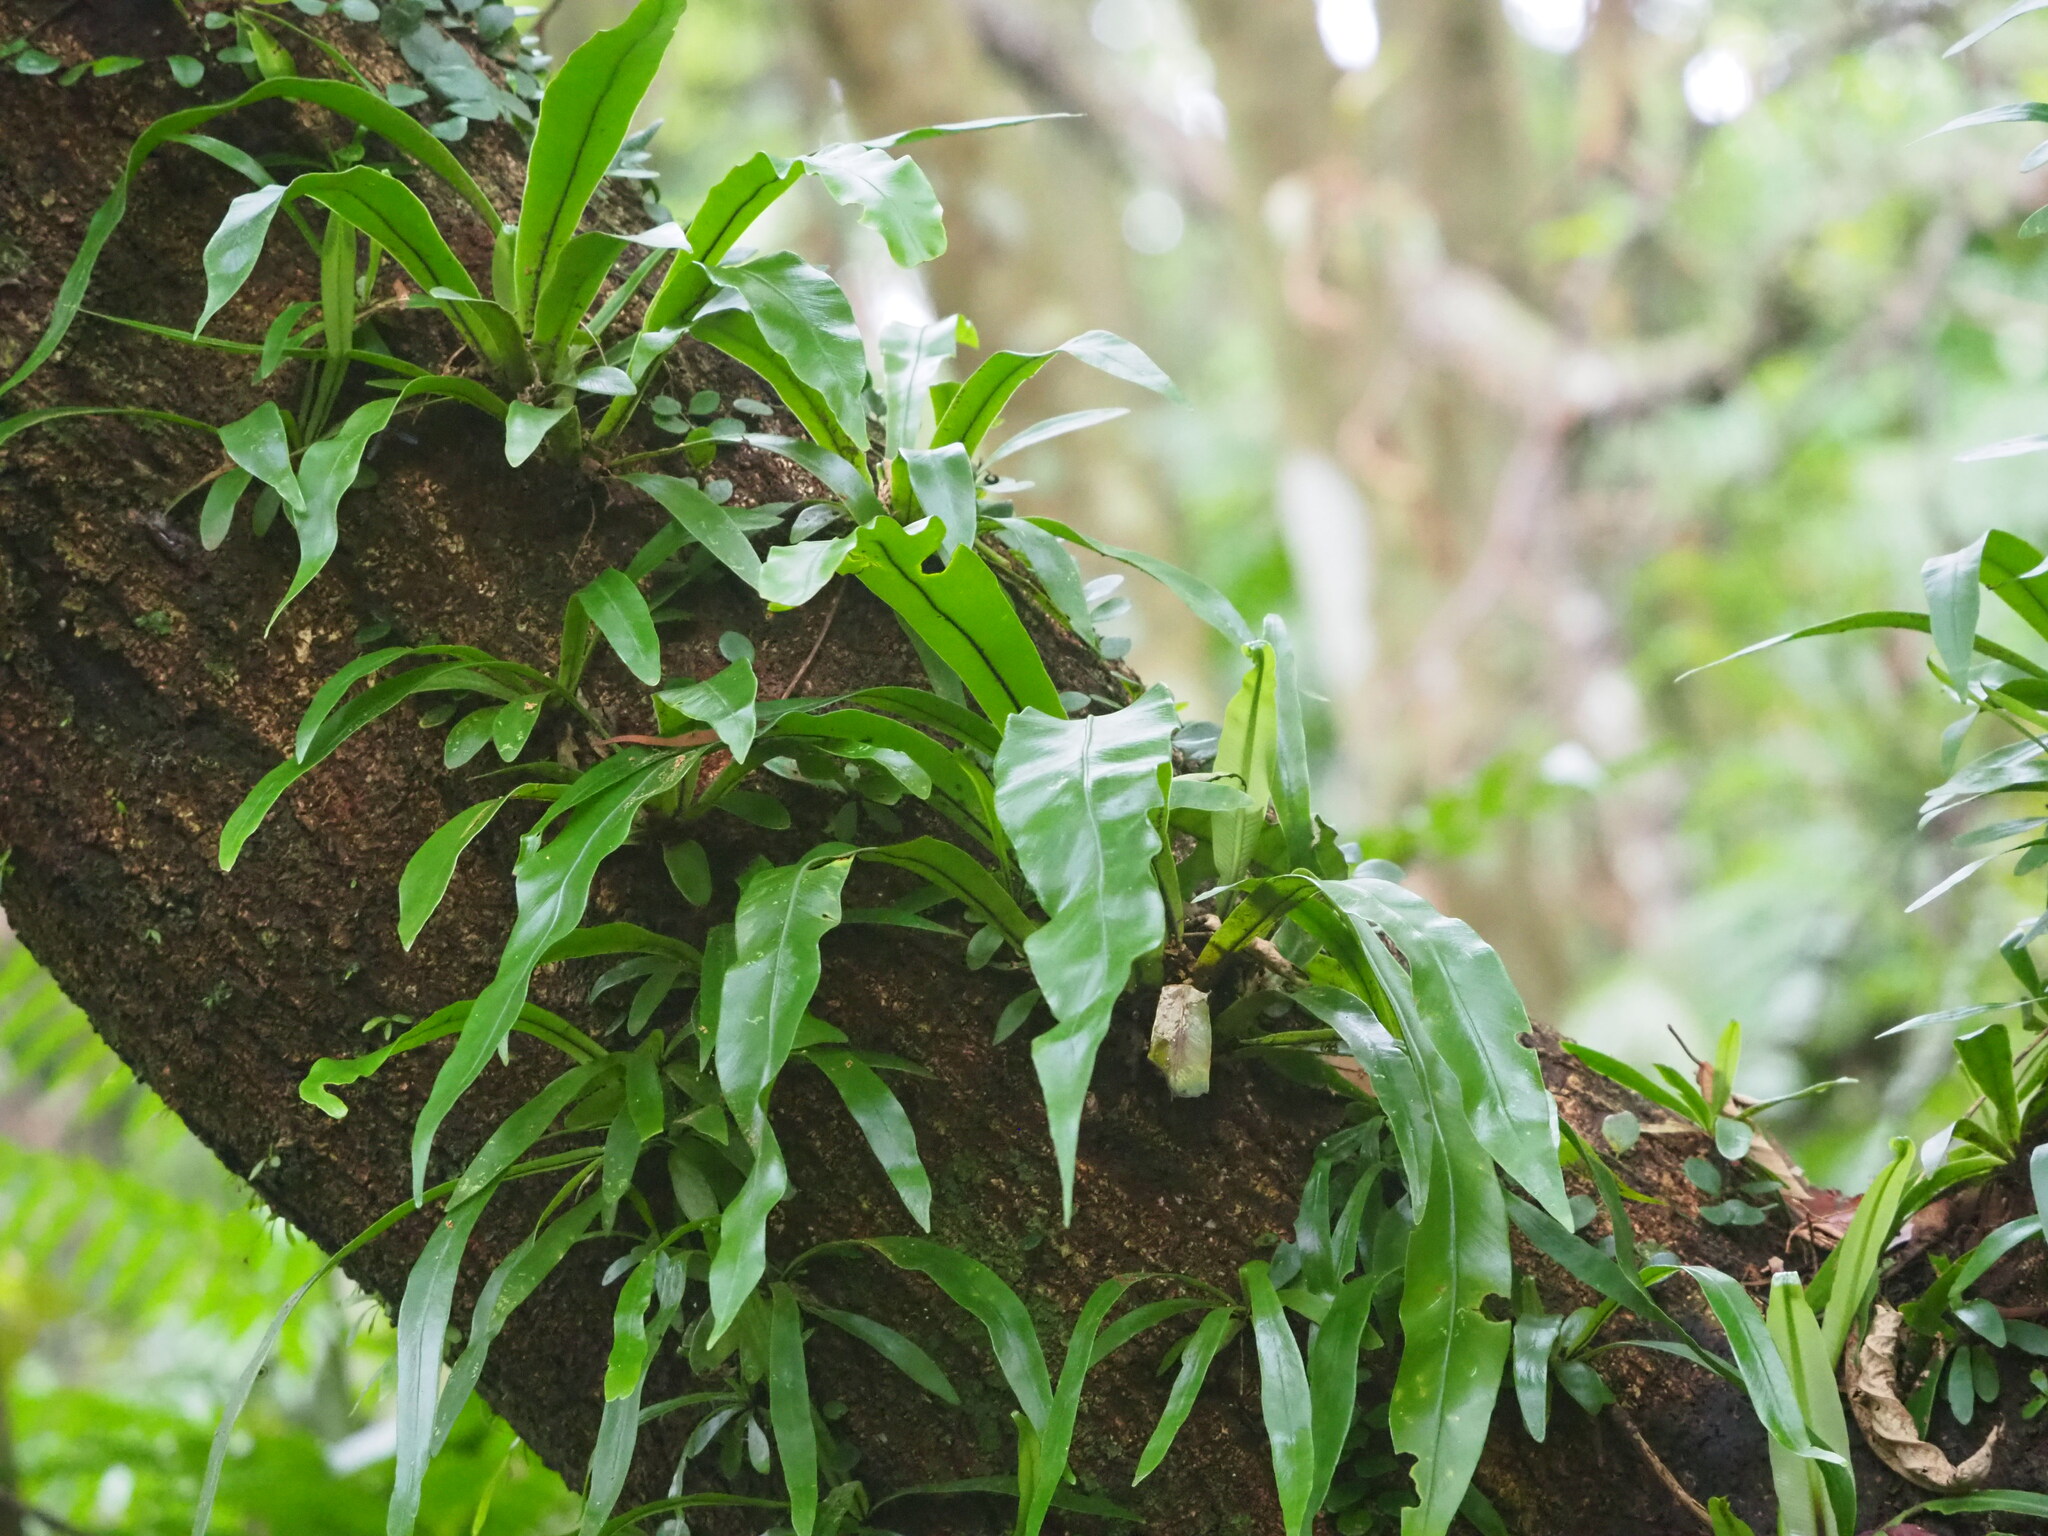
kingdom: Plantae
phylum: Tracheophyta
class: Polypodiopsida
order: Polypodiales
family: Aspleniaceae
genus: Asplenium
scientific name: Asplenium nidus
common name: Bird's-nest fern
